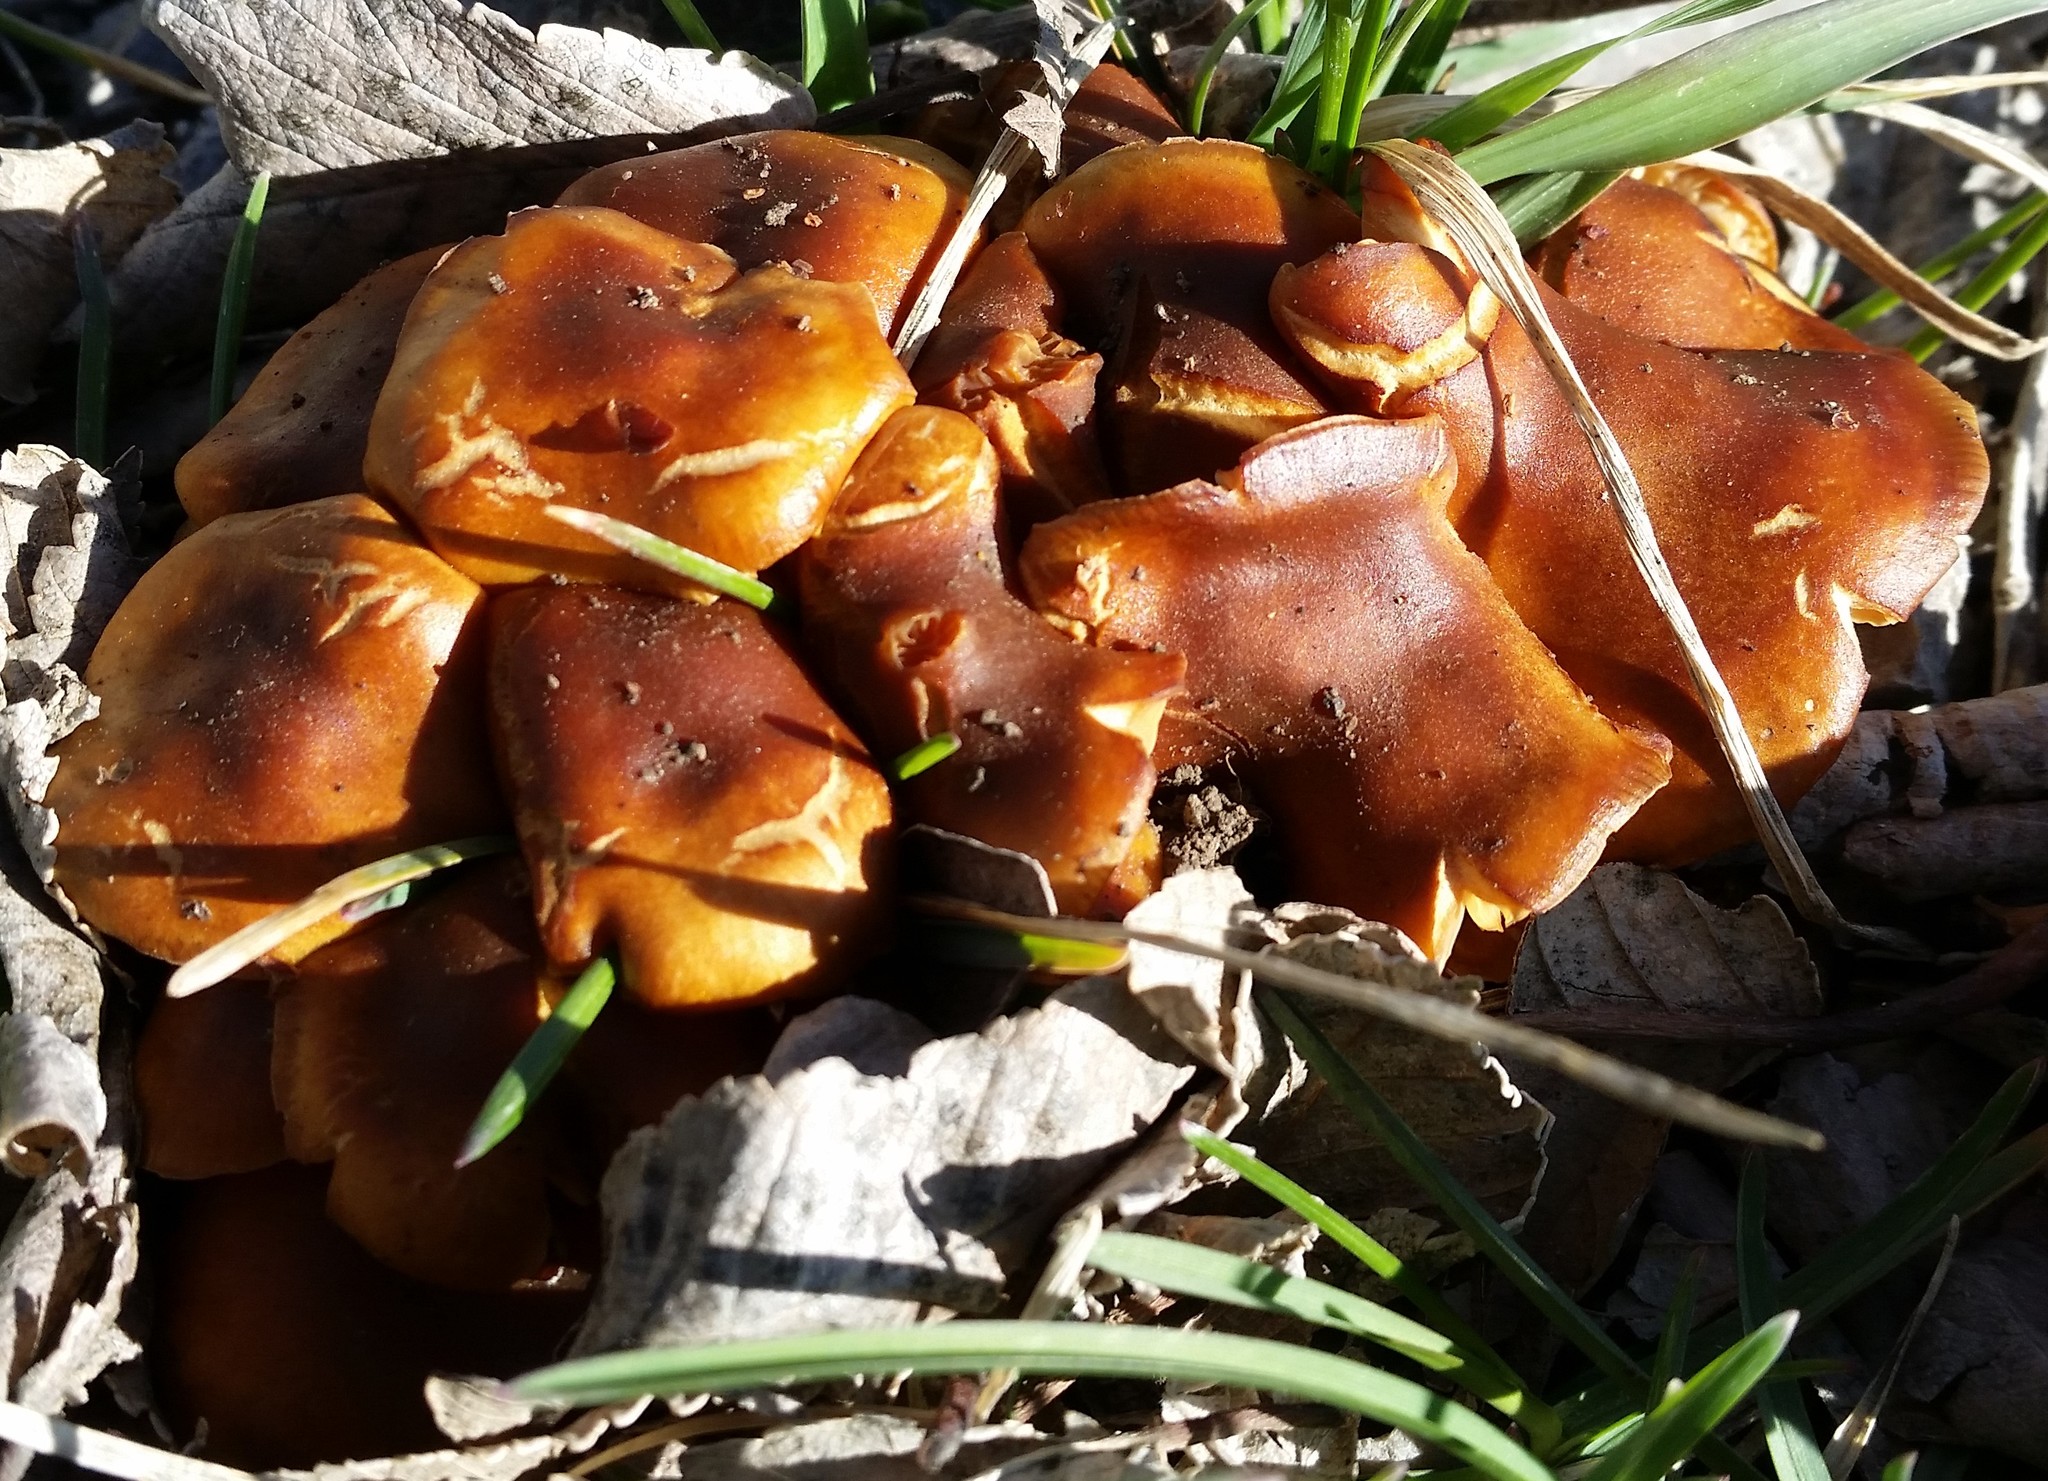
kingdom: Fungi
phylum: Basidiomycota
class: Agaricomycetes
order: Agaricales
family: Physalacriaceae
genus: Flammulina
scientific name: Flammulina velutipes
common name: Velvet shank
